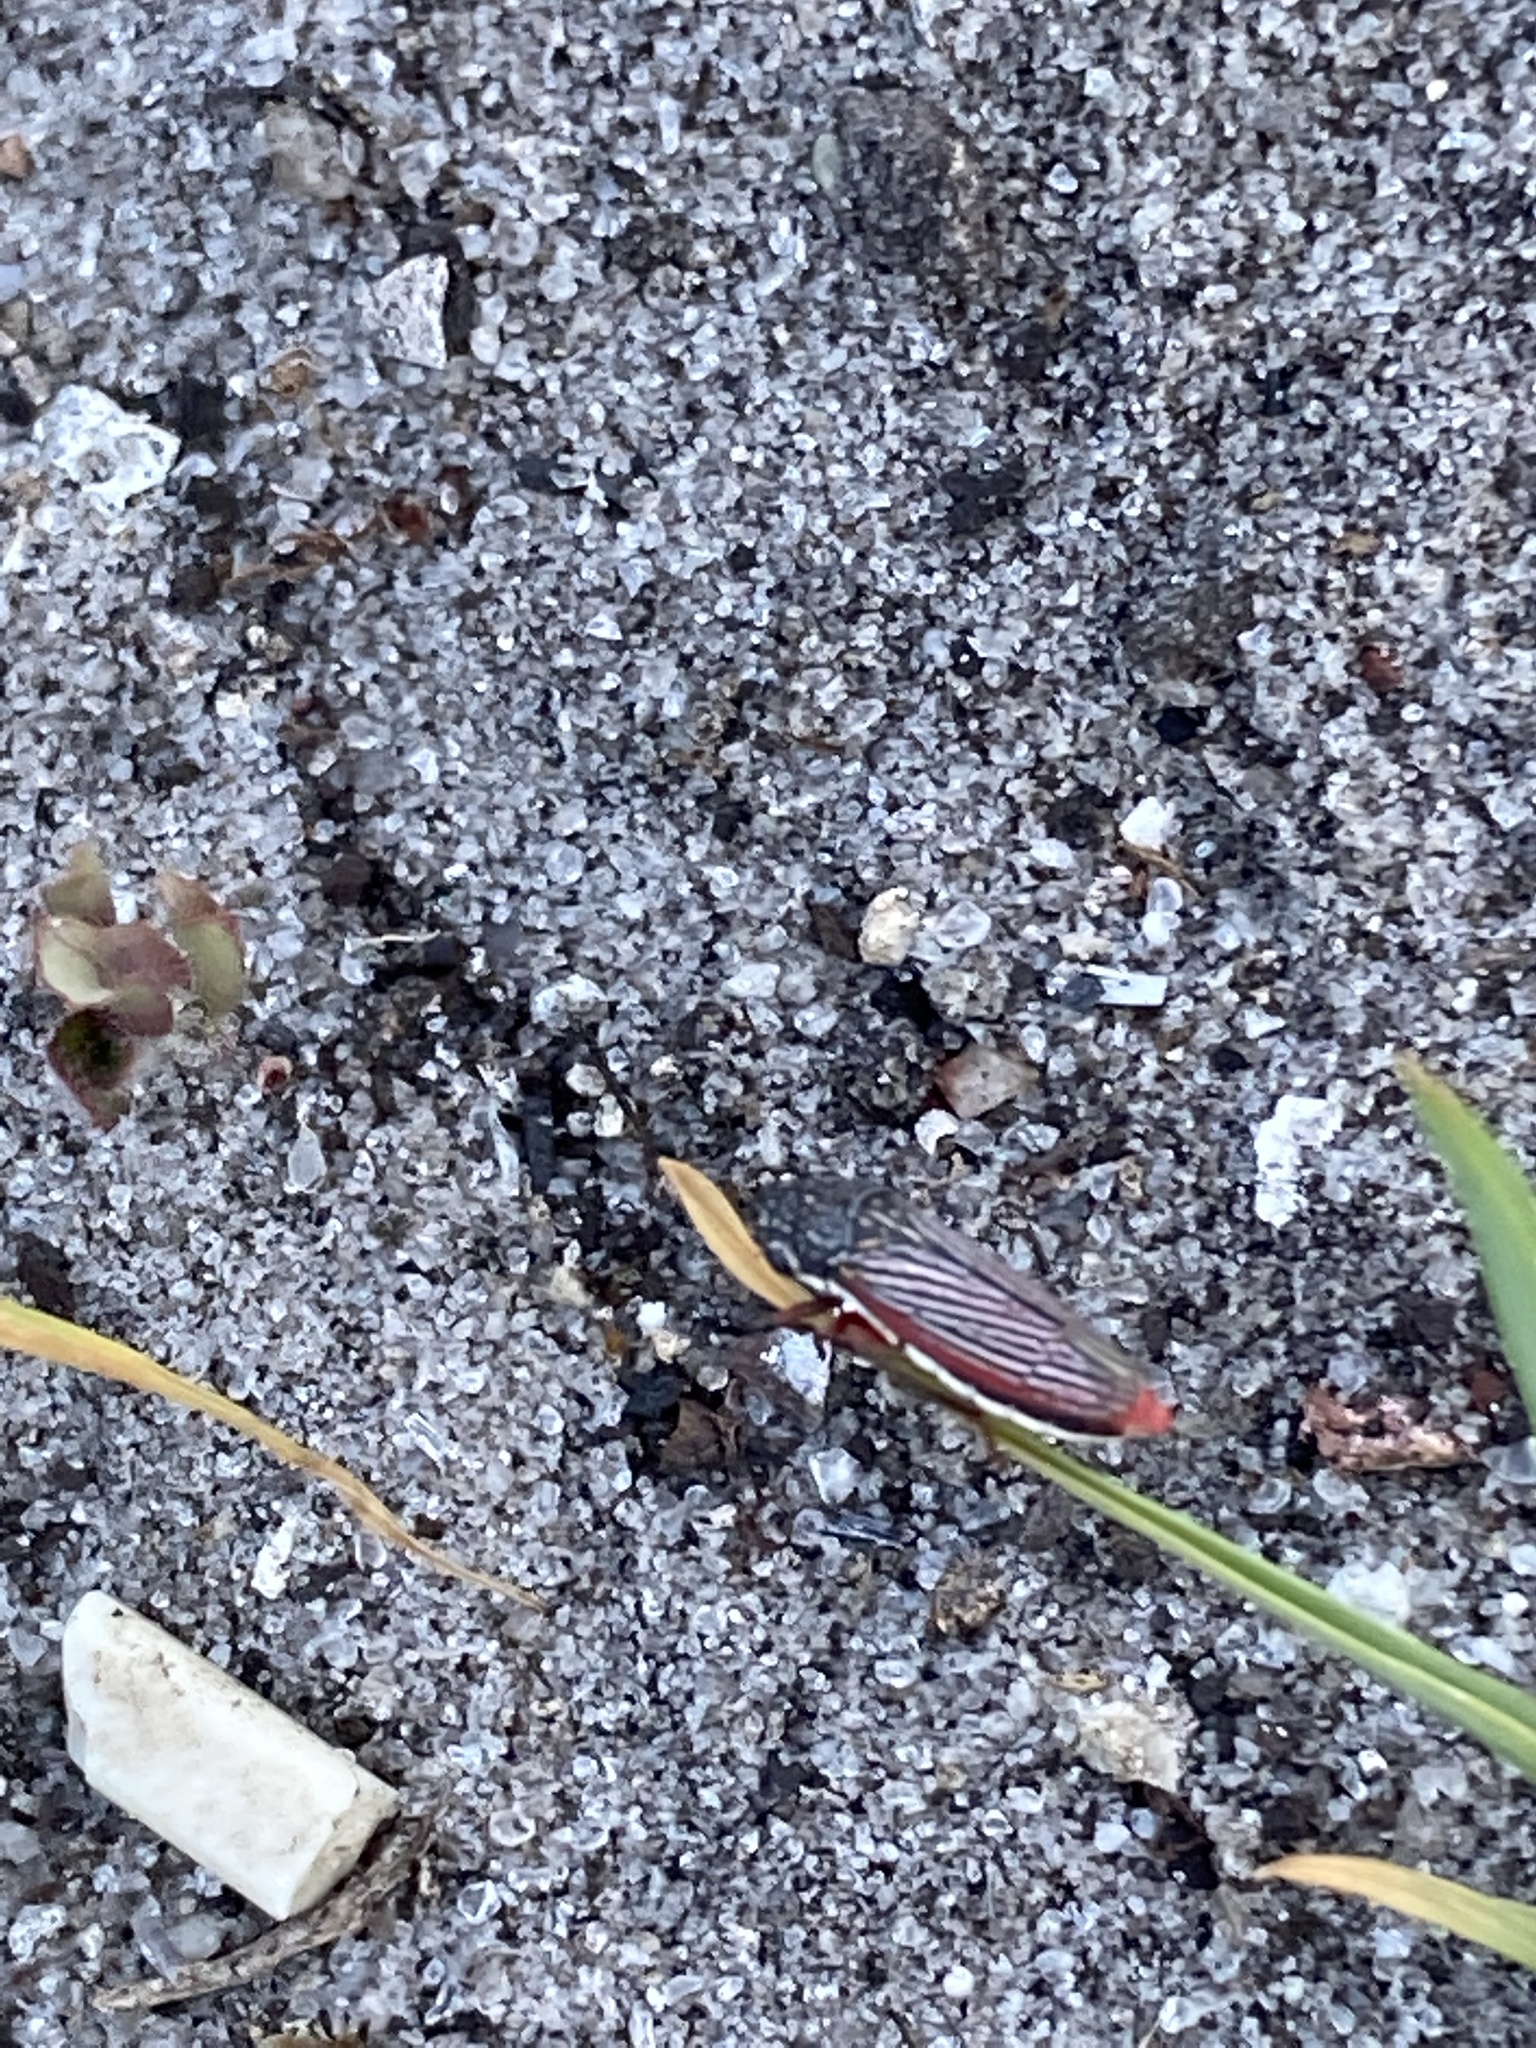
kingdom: Animalia
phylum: Arthropoda
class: Insecta
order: Hemiptera
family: Cicadellidae
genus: Cuerna
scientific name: Cuerna costalis
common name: Lateral-lined sharpshooter
